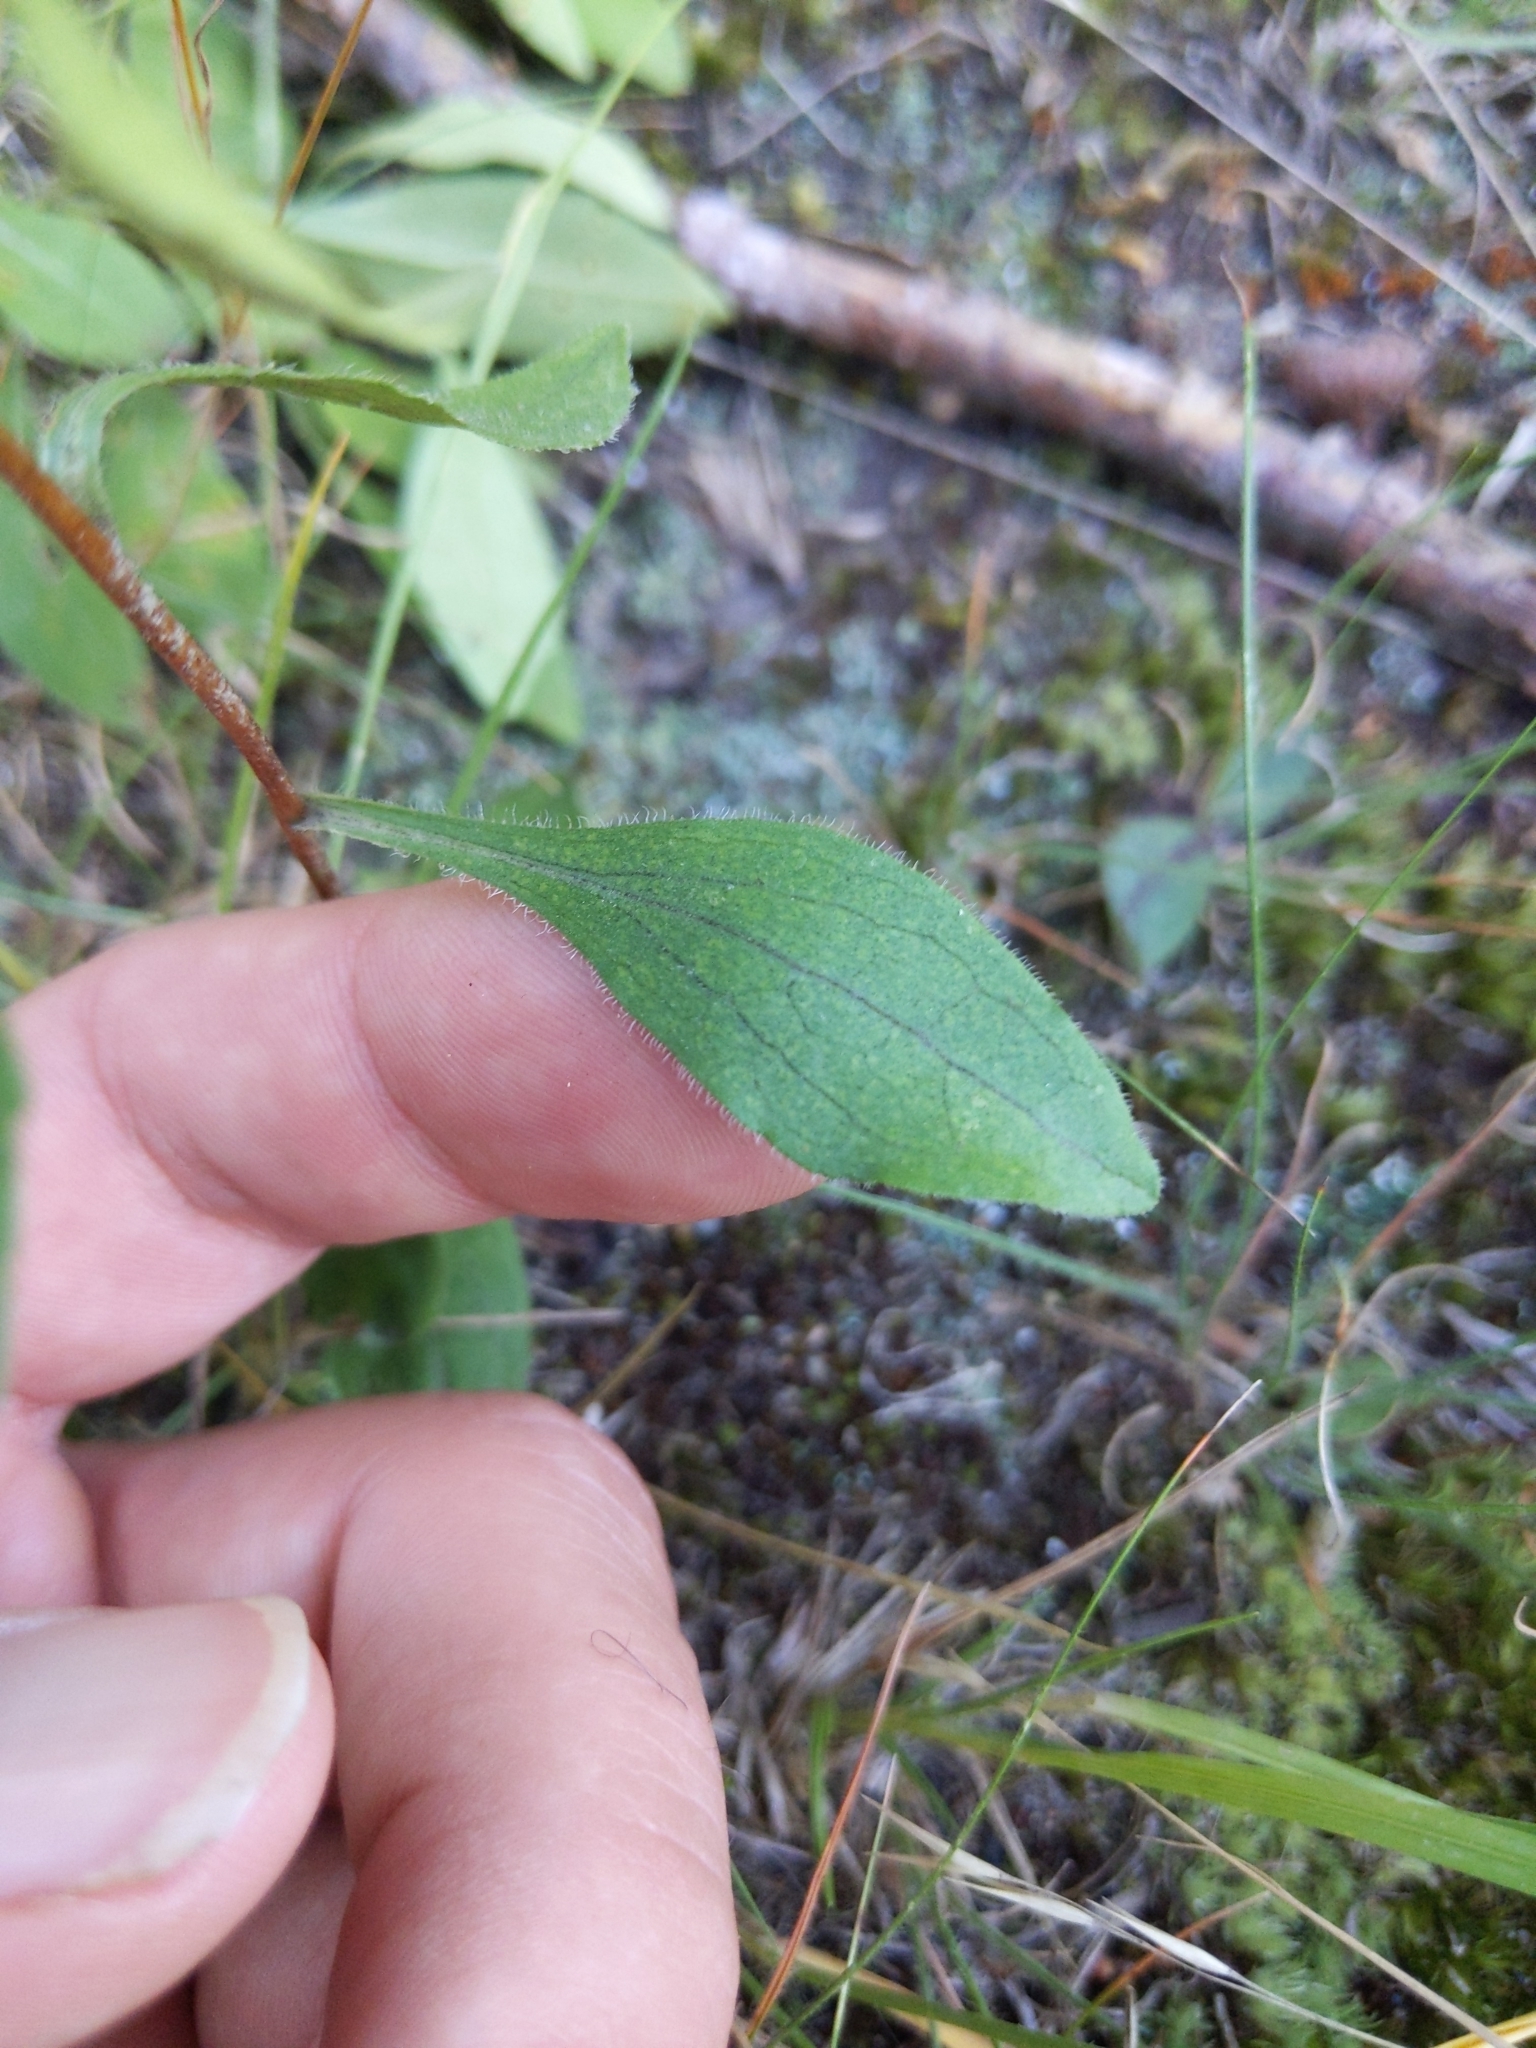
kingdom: Plantae
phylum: Tracheophyta
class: Magnoliopsida
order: Asterales
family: Asteraceae
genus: Sericocarpus
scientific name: Sericocarpus asteroides
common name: Toothed white-top aster
